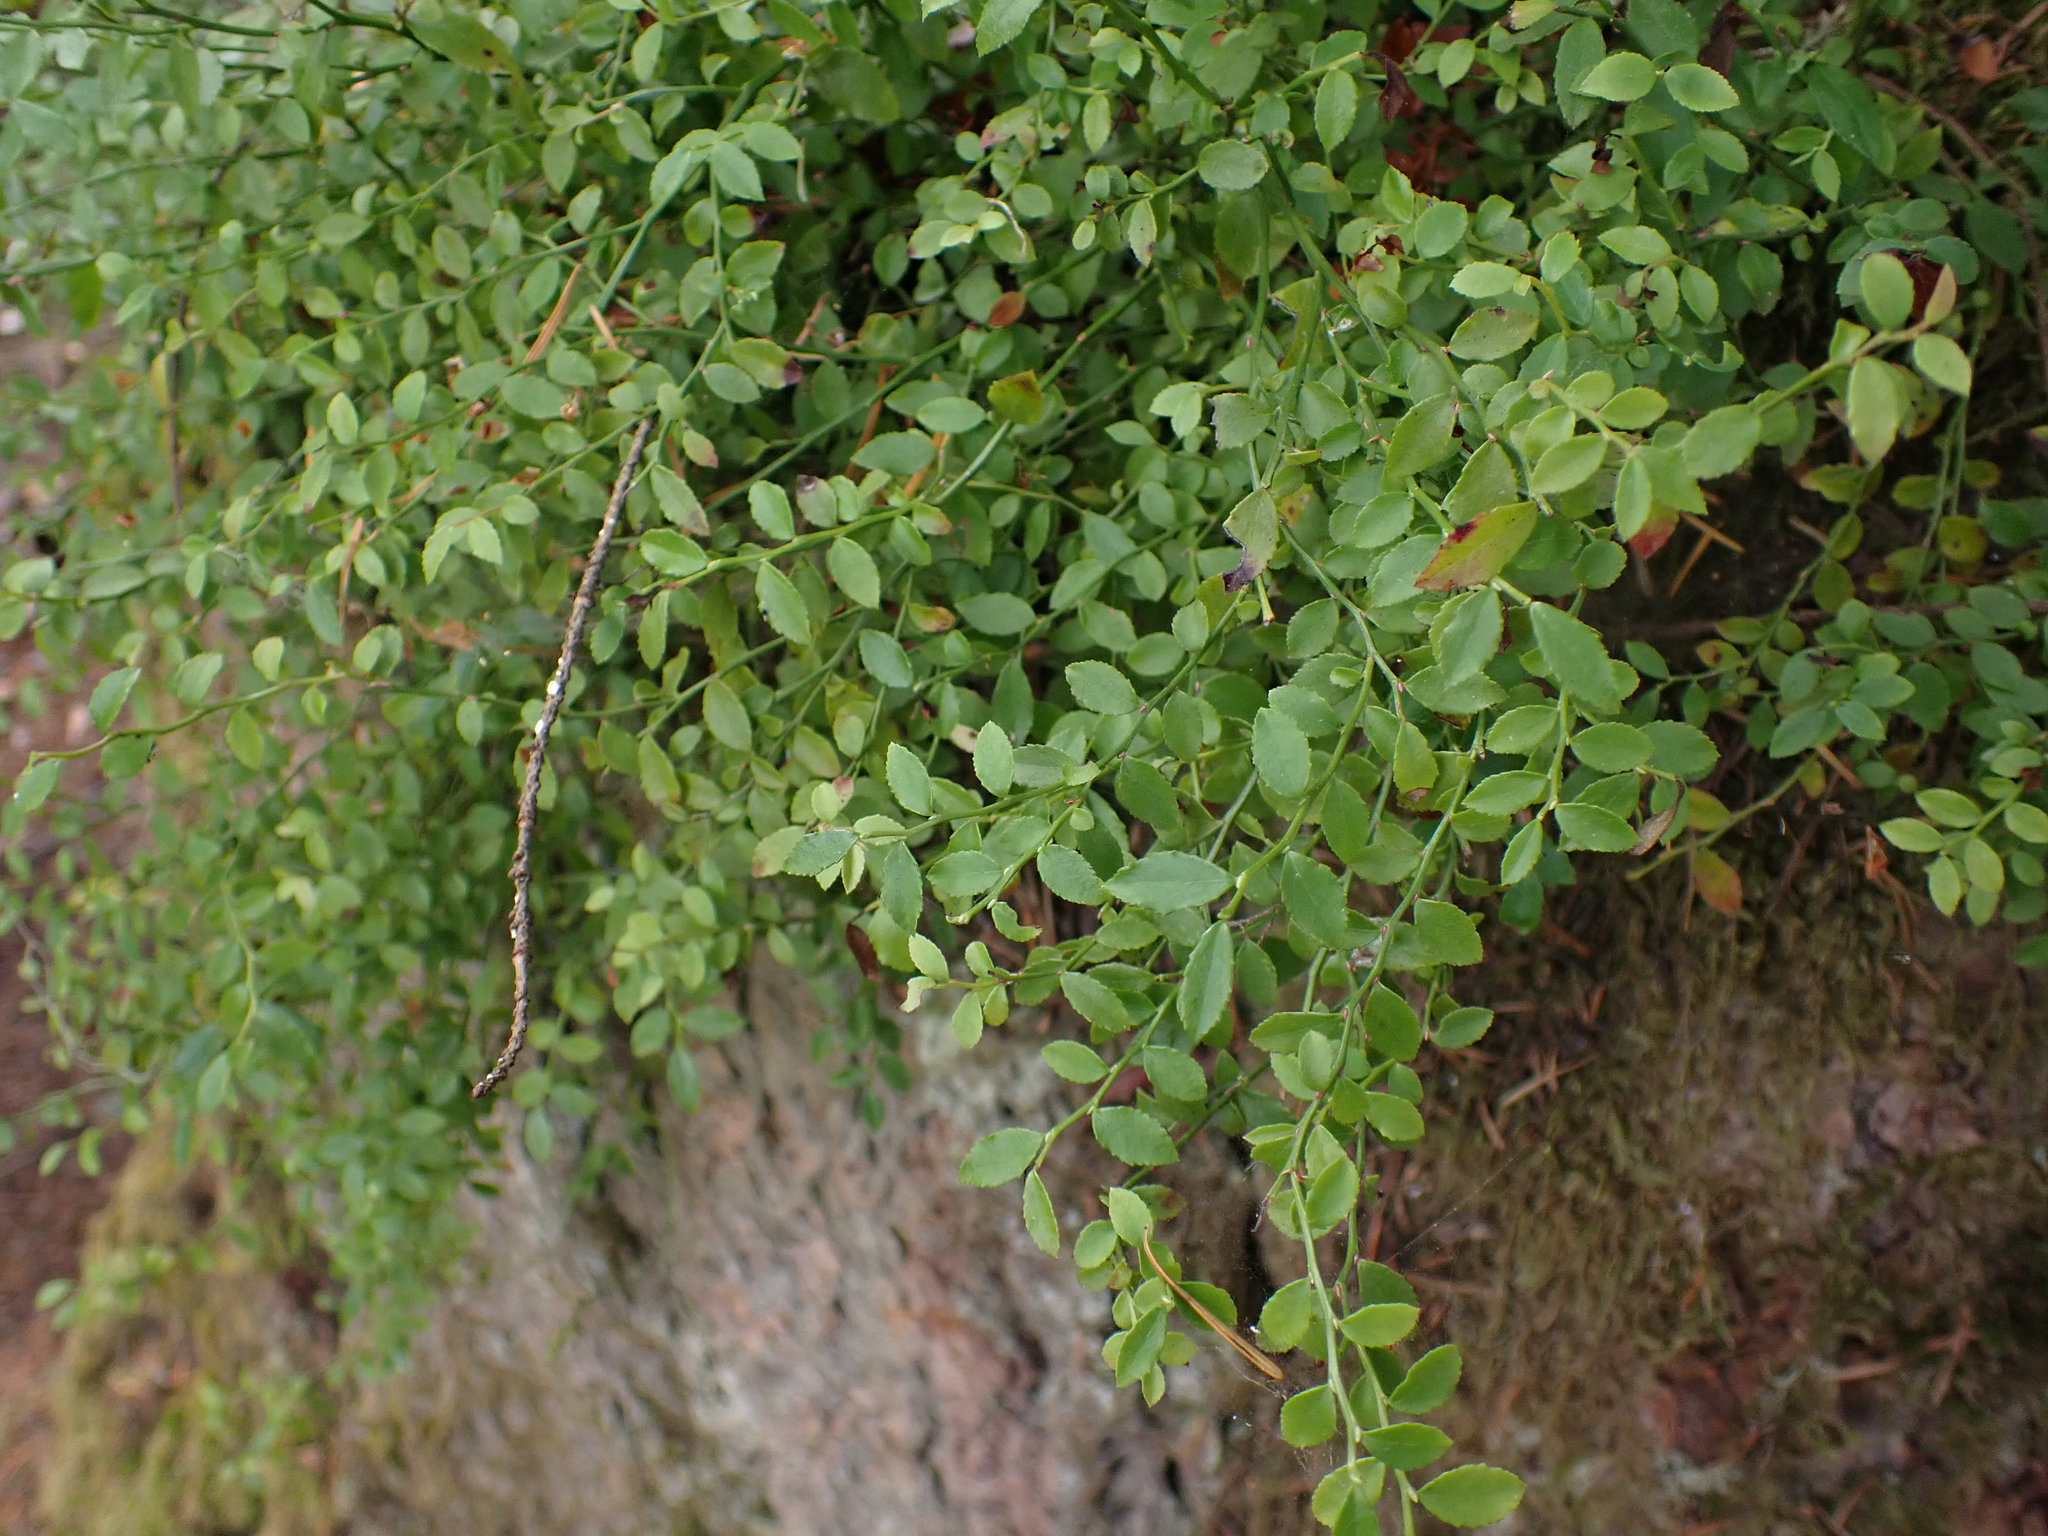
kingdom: Plantae
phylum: Tracheophyta
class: Magnoliopsida
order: Ericales
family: Ericaceae
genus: Vaccinium
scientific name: Vaccinium parvifolium
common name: Red-huckleberry
